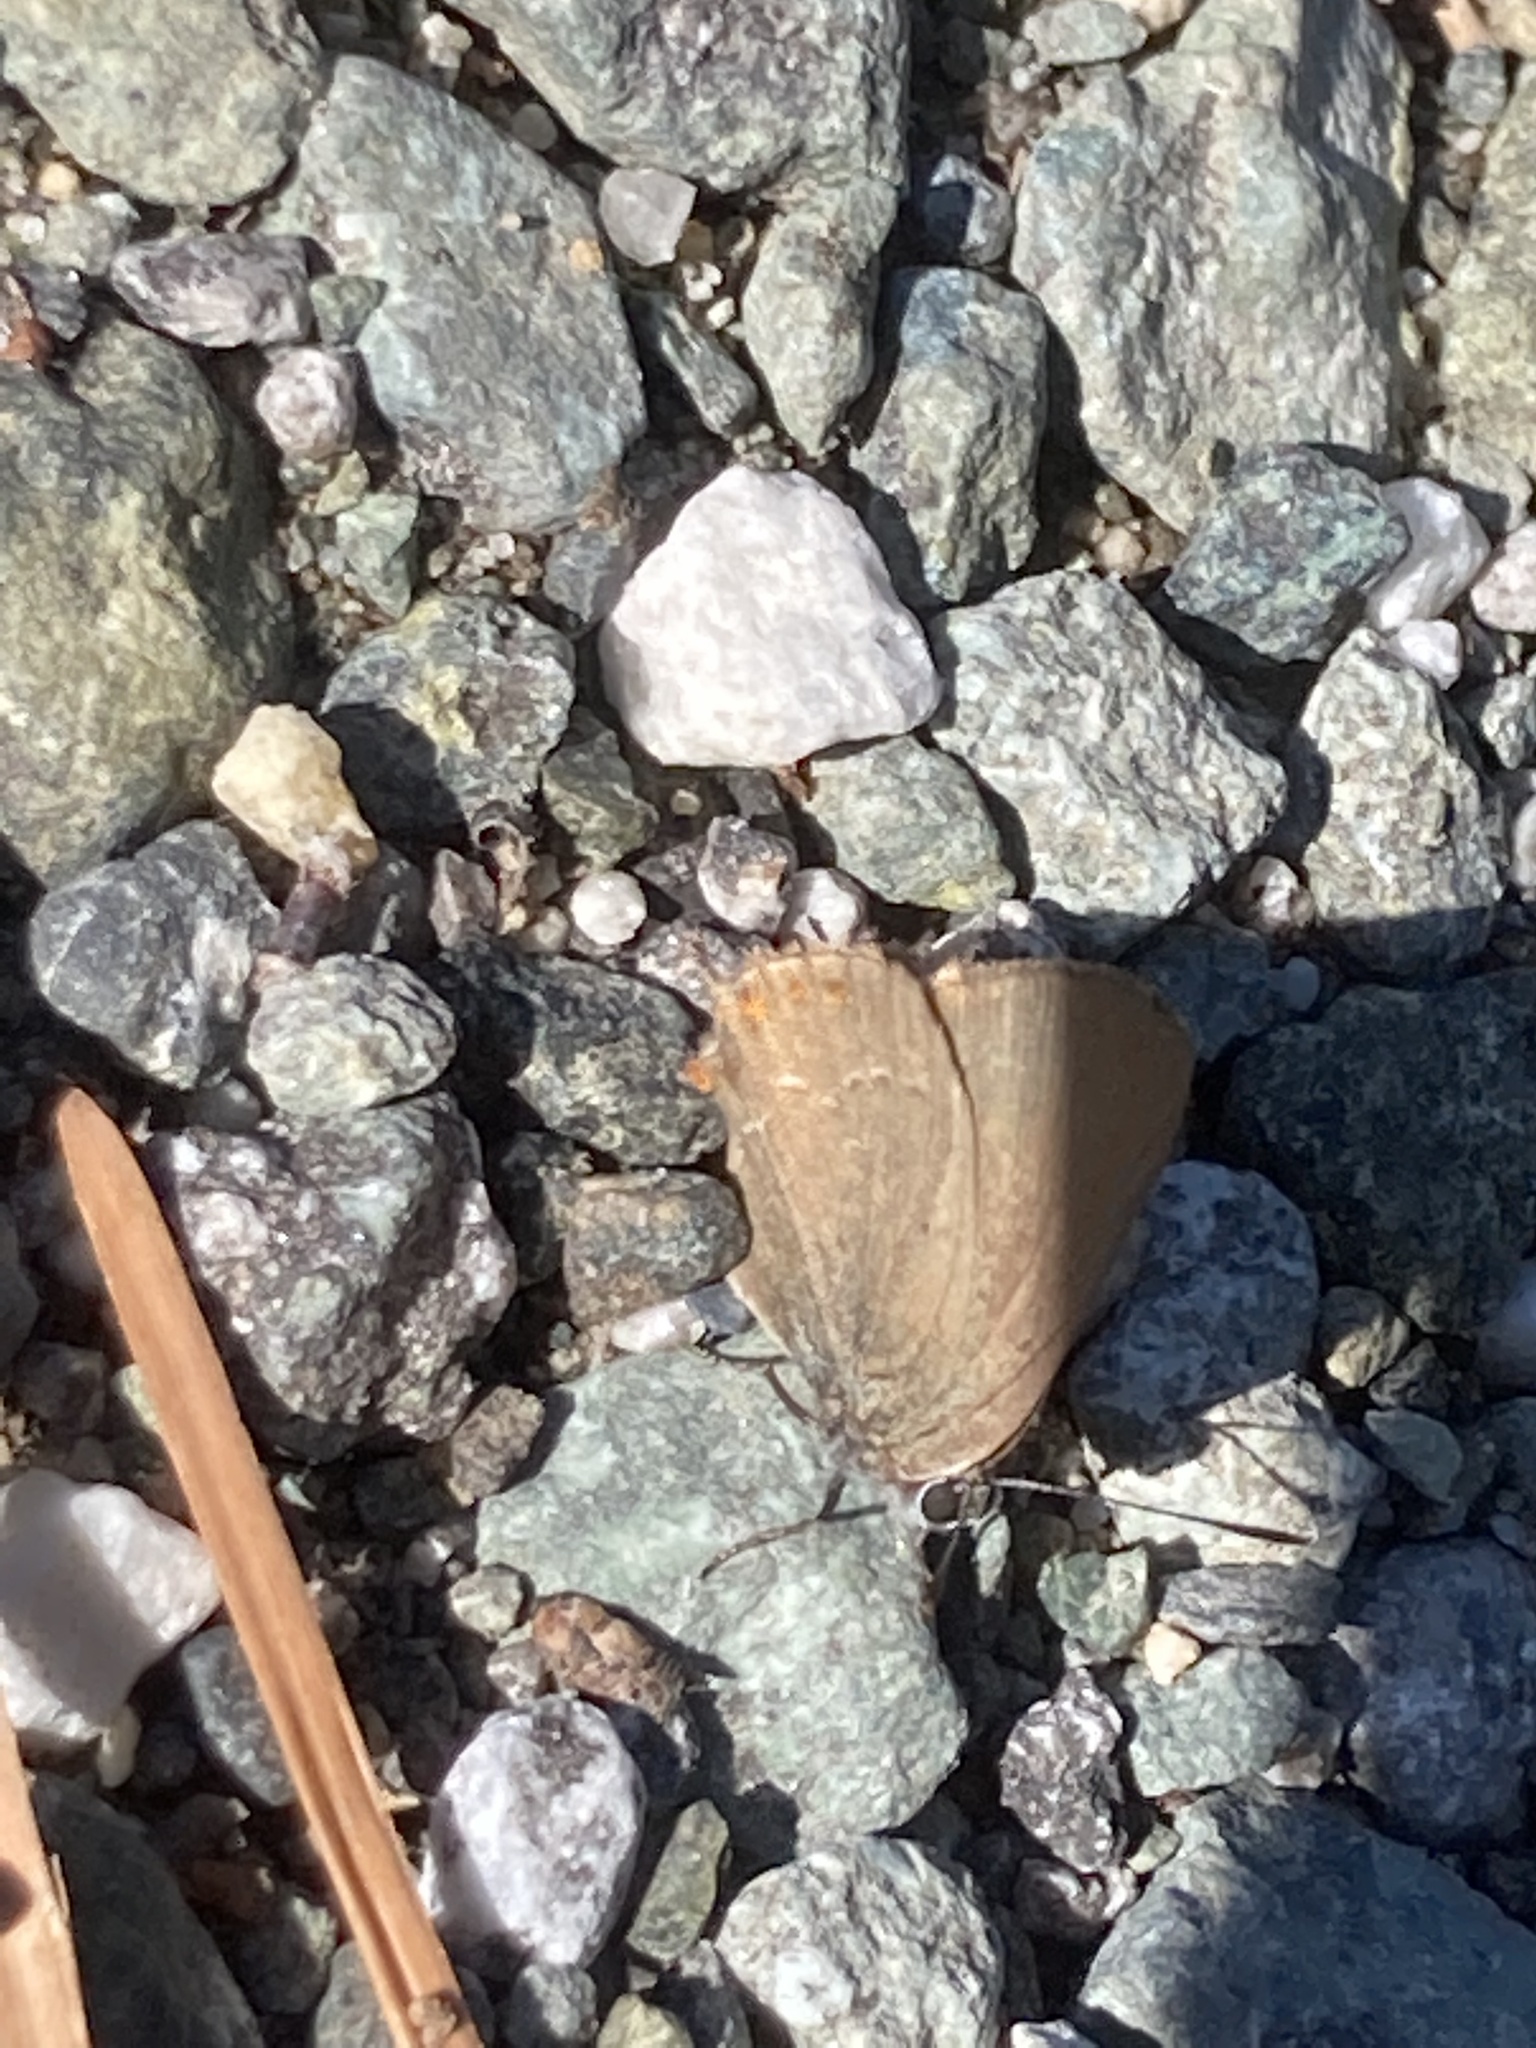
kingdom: Animalia
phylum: Arthropoda
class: Insecta
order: Lepidoptera
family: Lycaenidae
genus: Fixsenia
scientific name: Fixsenia esculi
